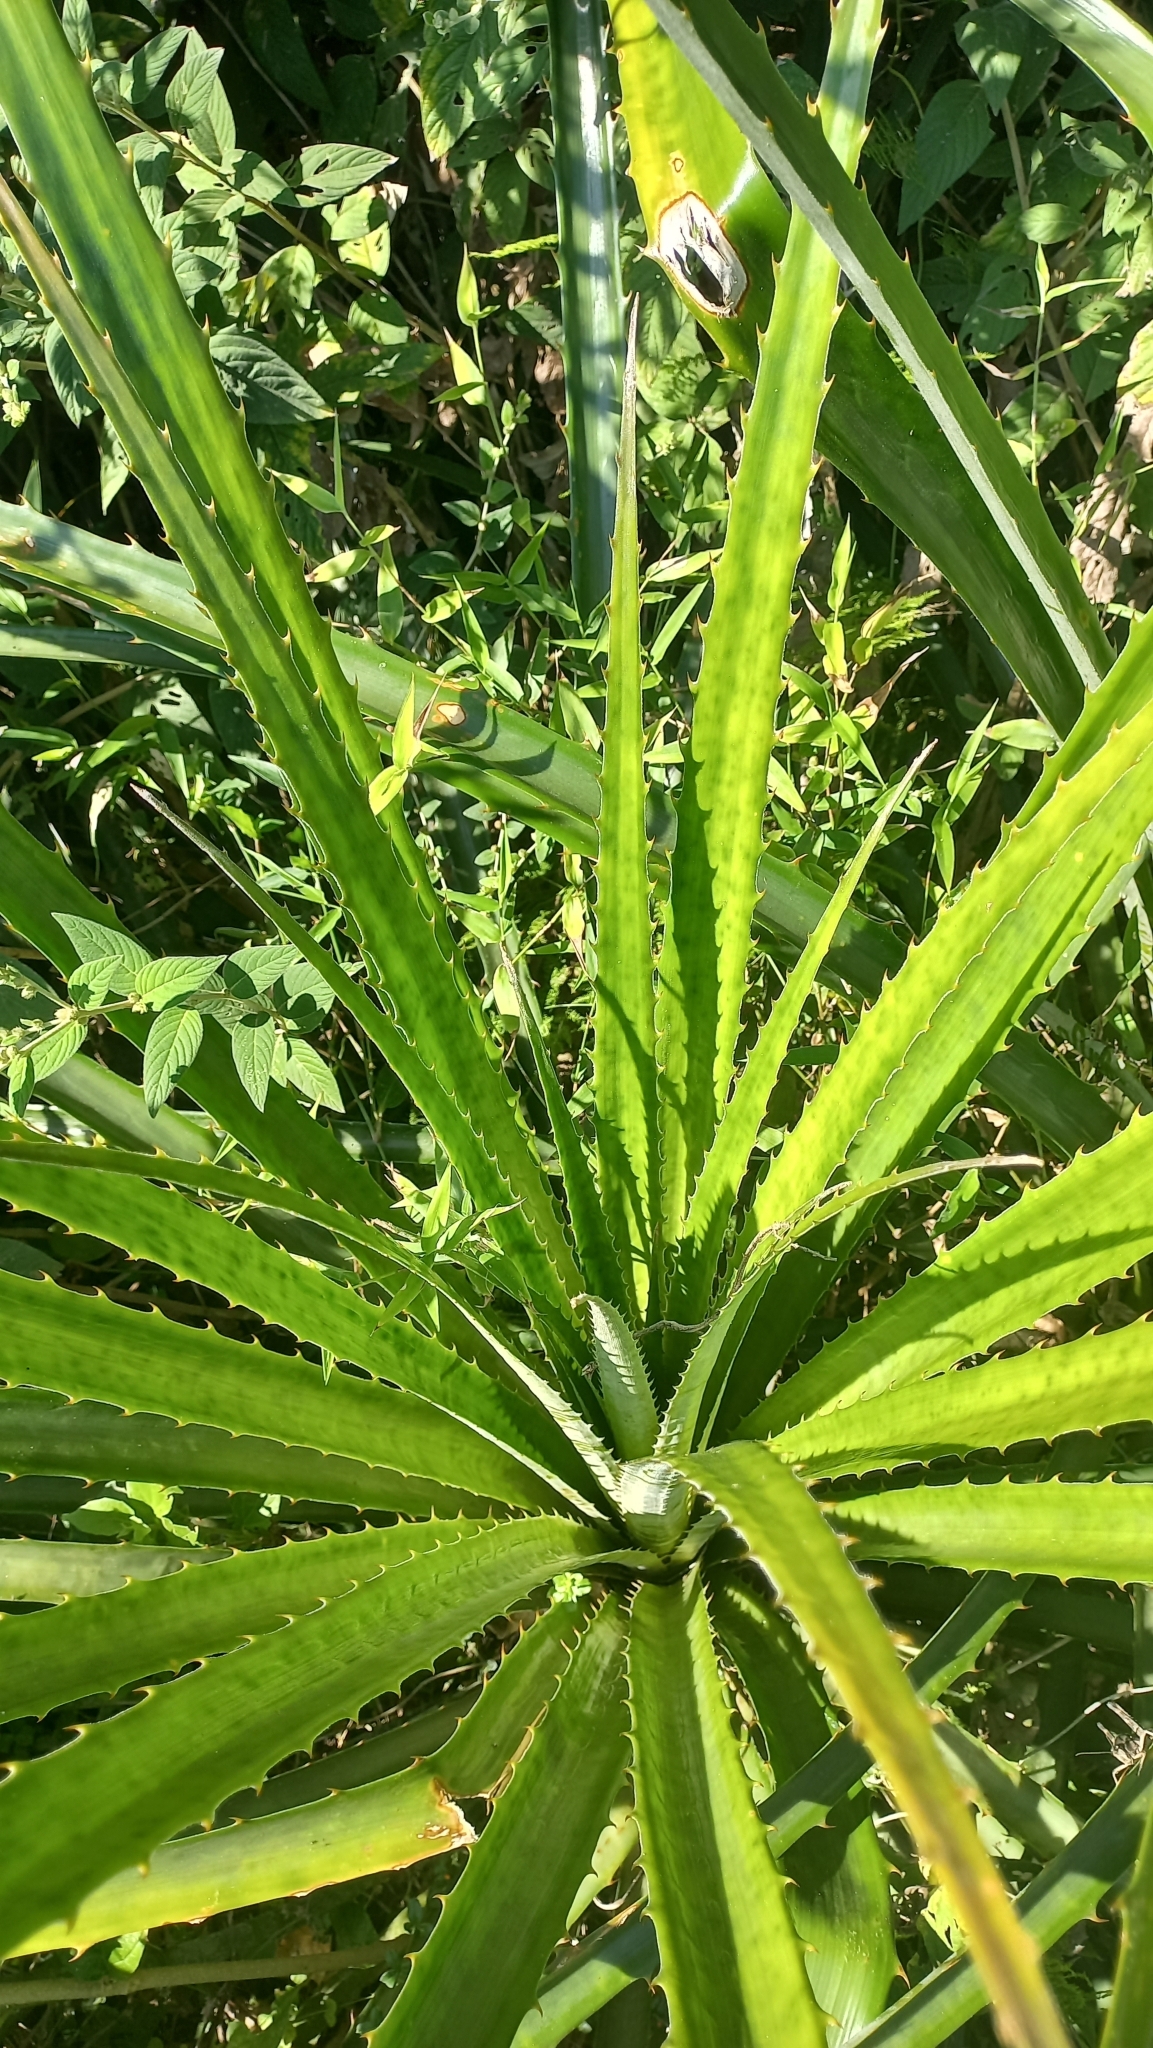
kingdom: Plantae
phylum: Tracheophyta
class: Liliopsida
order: Poales
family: Bromeliaceae
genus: Bromelia
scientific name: Bromelia antiacantha
